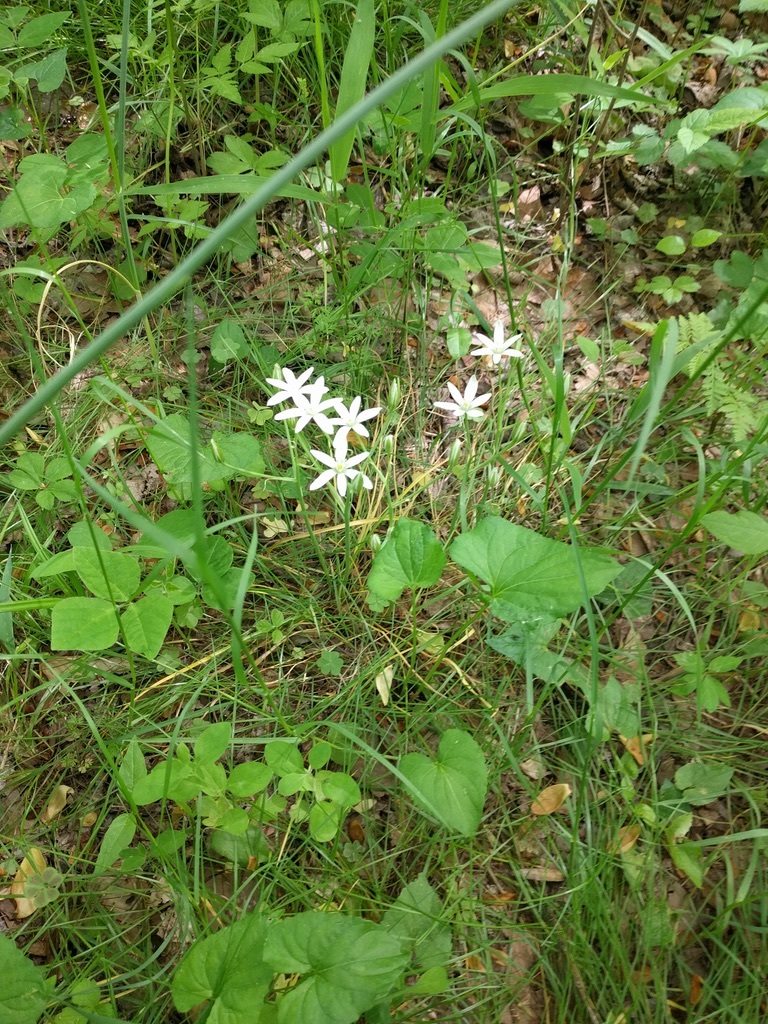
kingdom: Plantae
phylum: Tracheophyta
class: Liliopsida
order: Asparagales
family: Asparagaceae
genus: Ornithogalum
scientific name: Ornithogalum umbellatum
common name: Garden star-of-bethlehem
